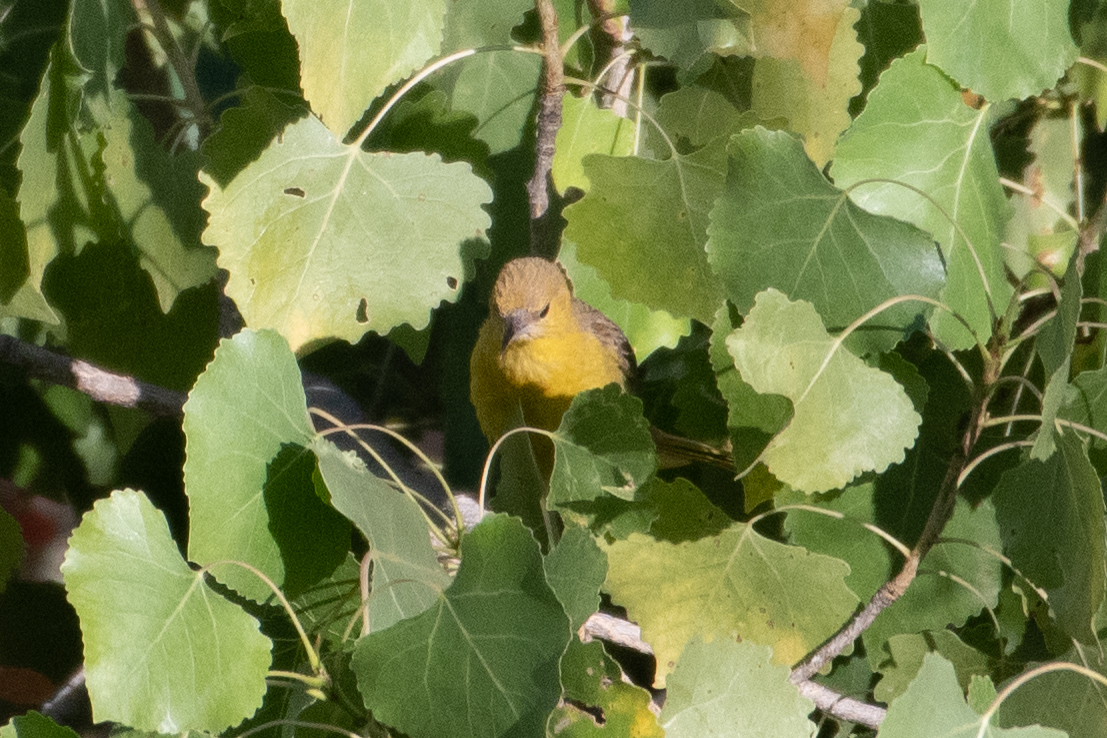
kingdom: Animalia
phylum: Chordata
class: Aves
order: Passeriformes
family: Icteridae
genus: Icterus
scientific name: Icterus cucullatus
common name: Hooded oriole
